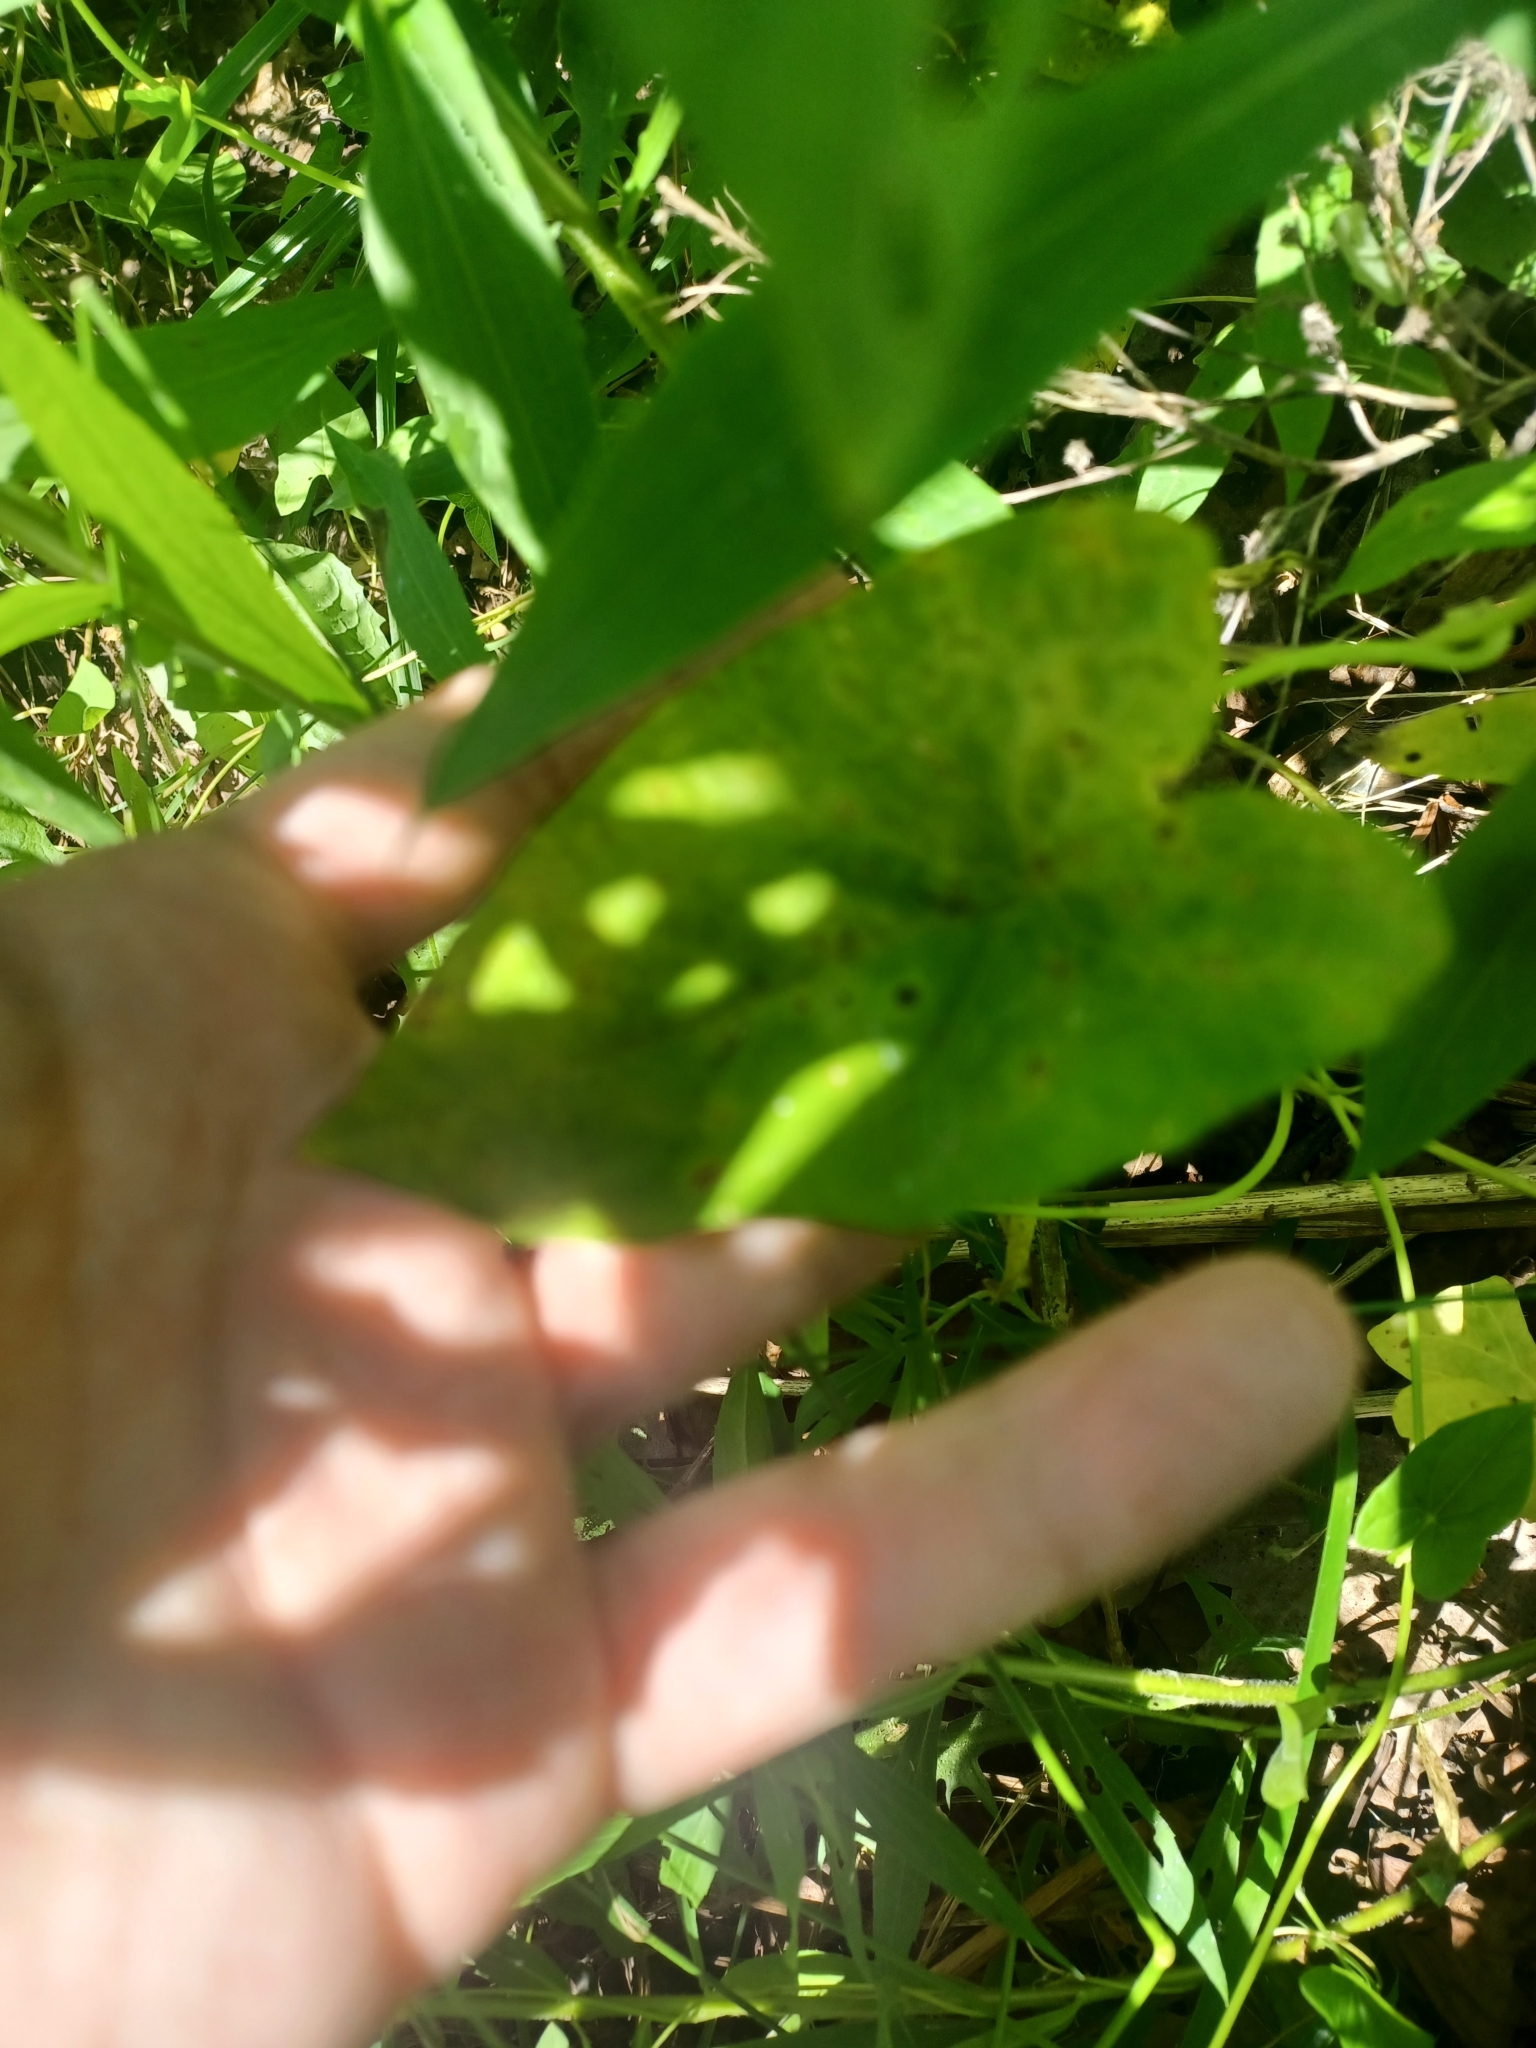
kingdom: Plantae
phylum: Tracheophyta
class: Magnoliopsida
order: Solanales
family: Convolvulaceae
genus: Calystegia
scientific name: Calystegia sepium
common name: Hedge bindweed
